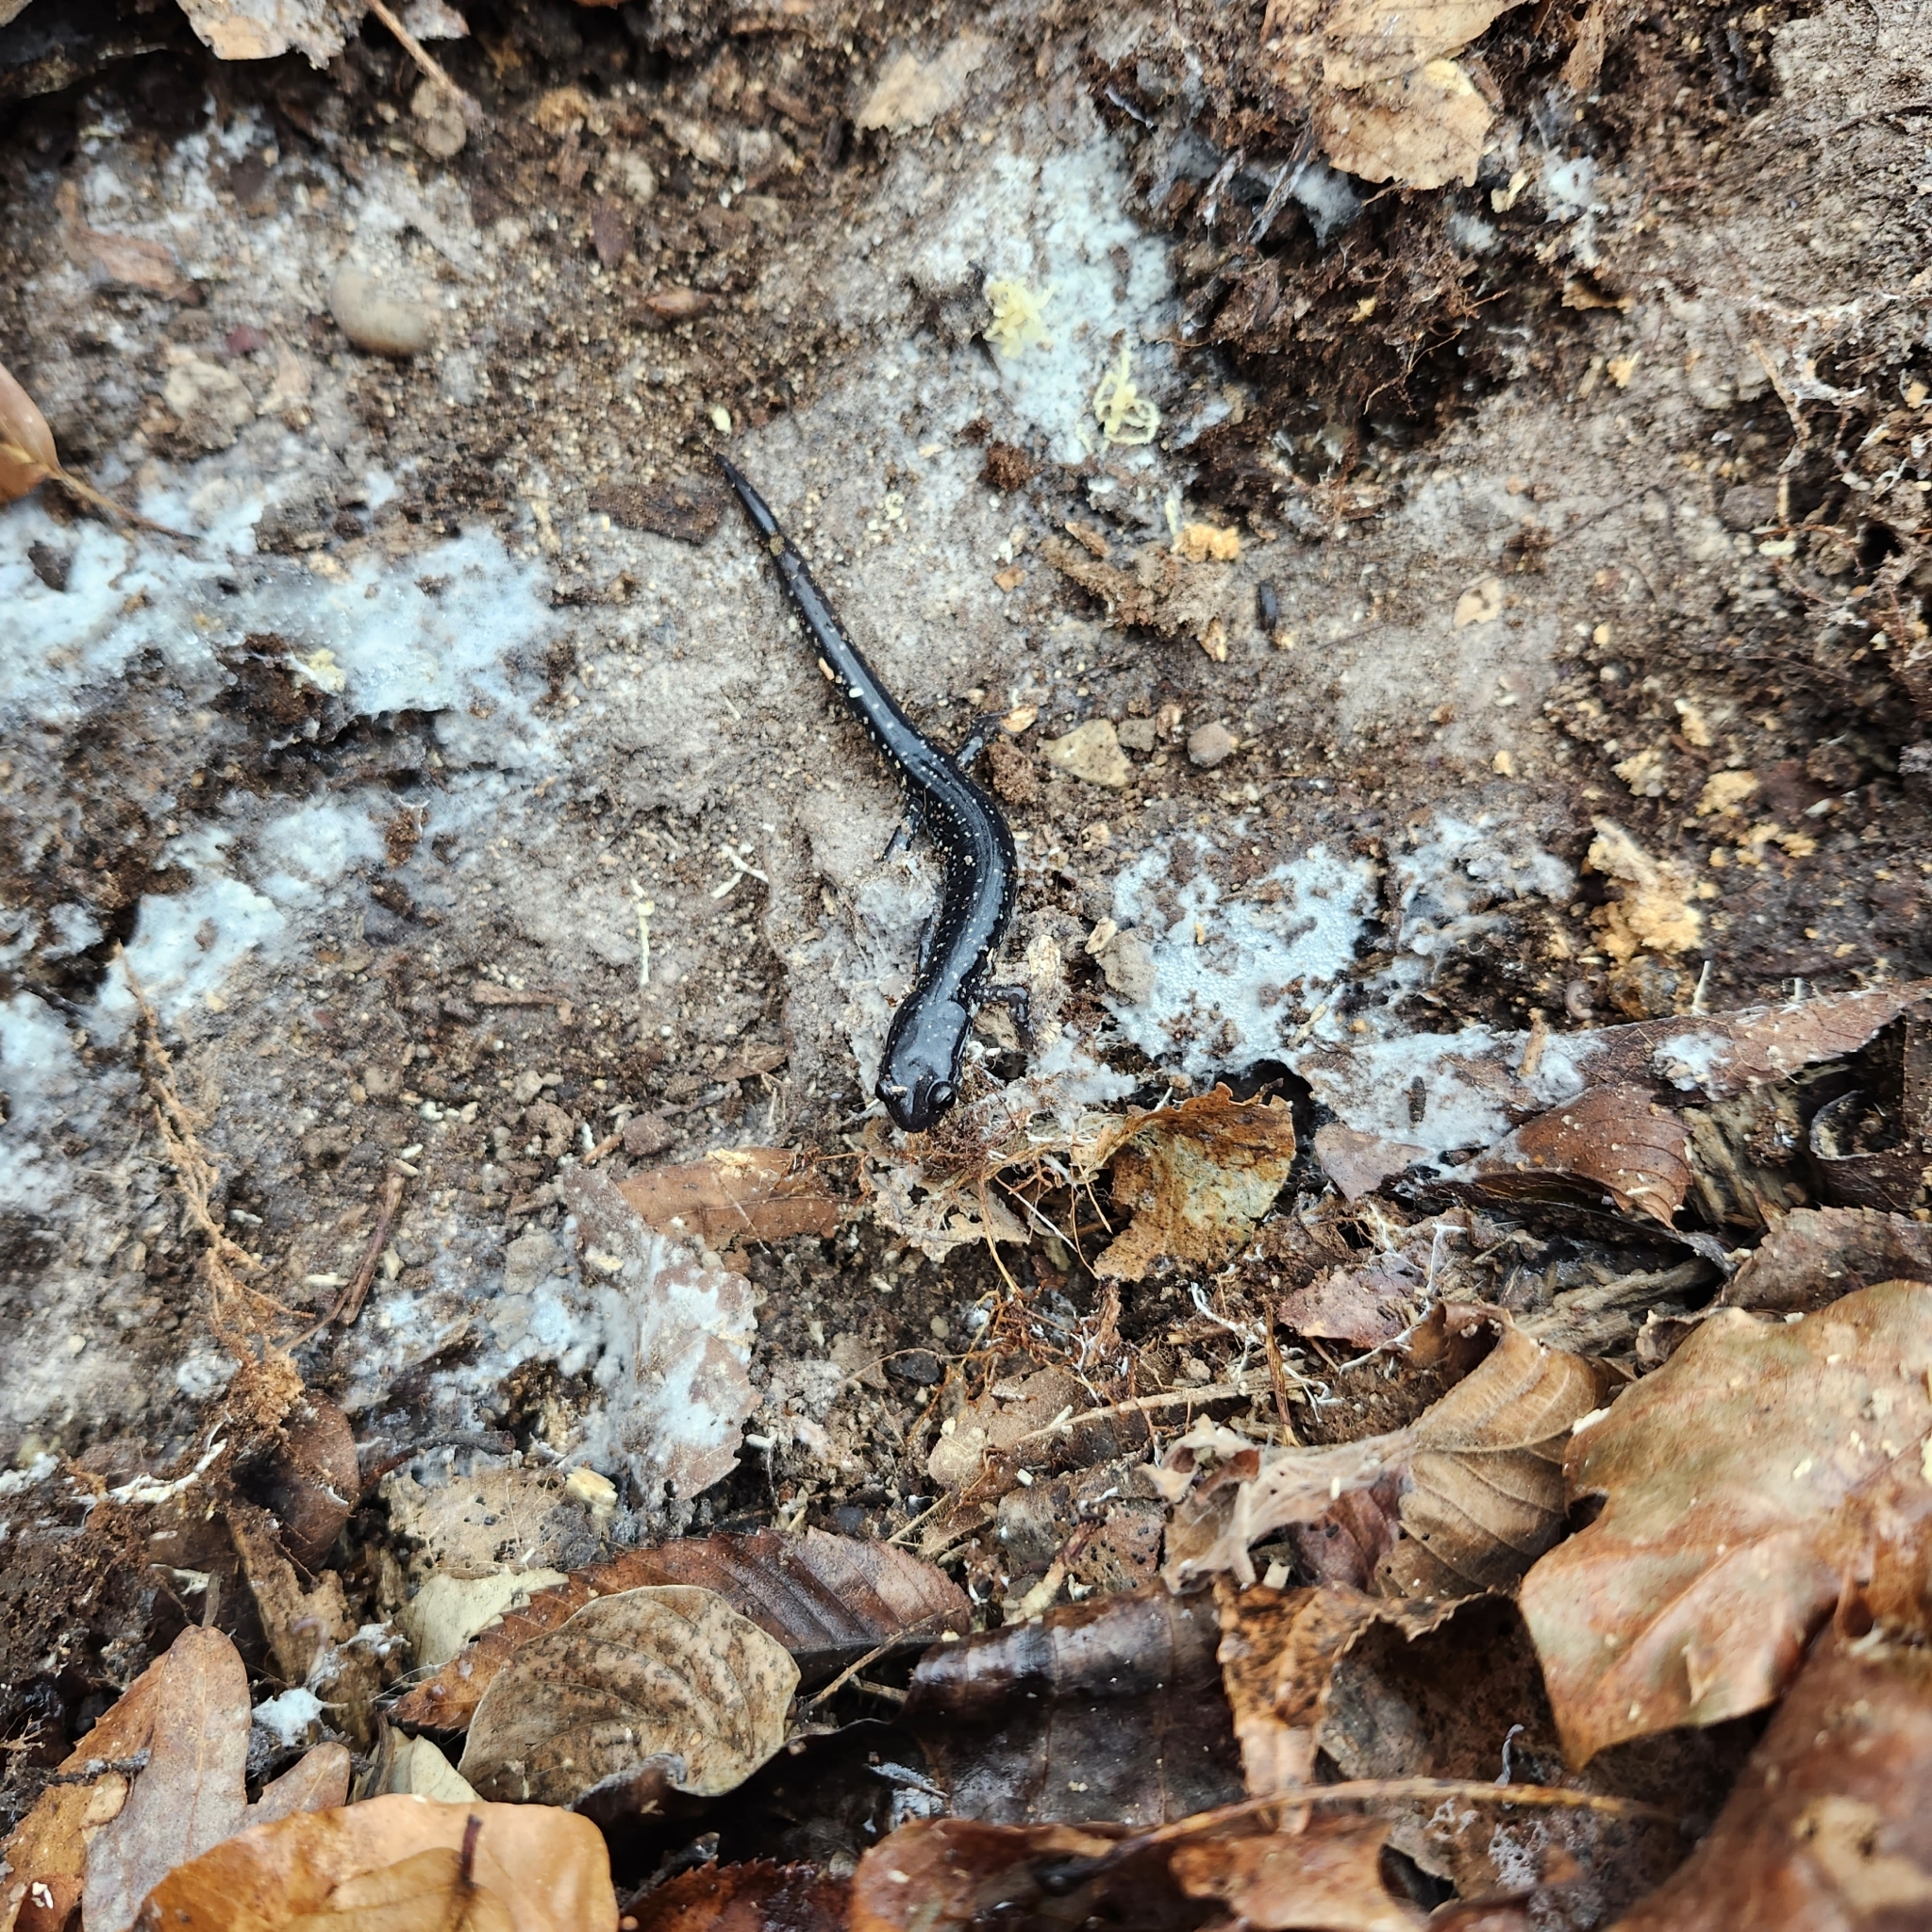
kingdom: Animalia
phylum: Chordata
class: Amphibia
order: Caudata
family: Plethodontidae
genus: Plethodon
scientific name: Plethodon glutinosus
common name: Northern slimy salamander
